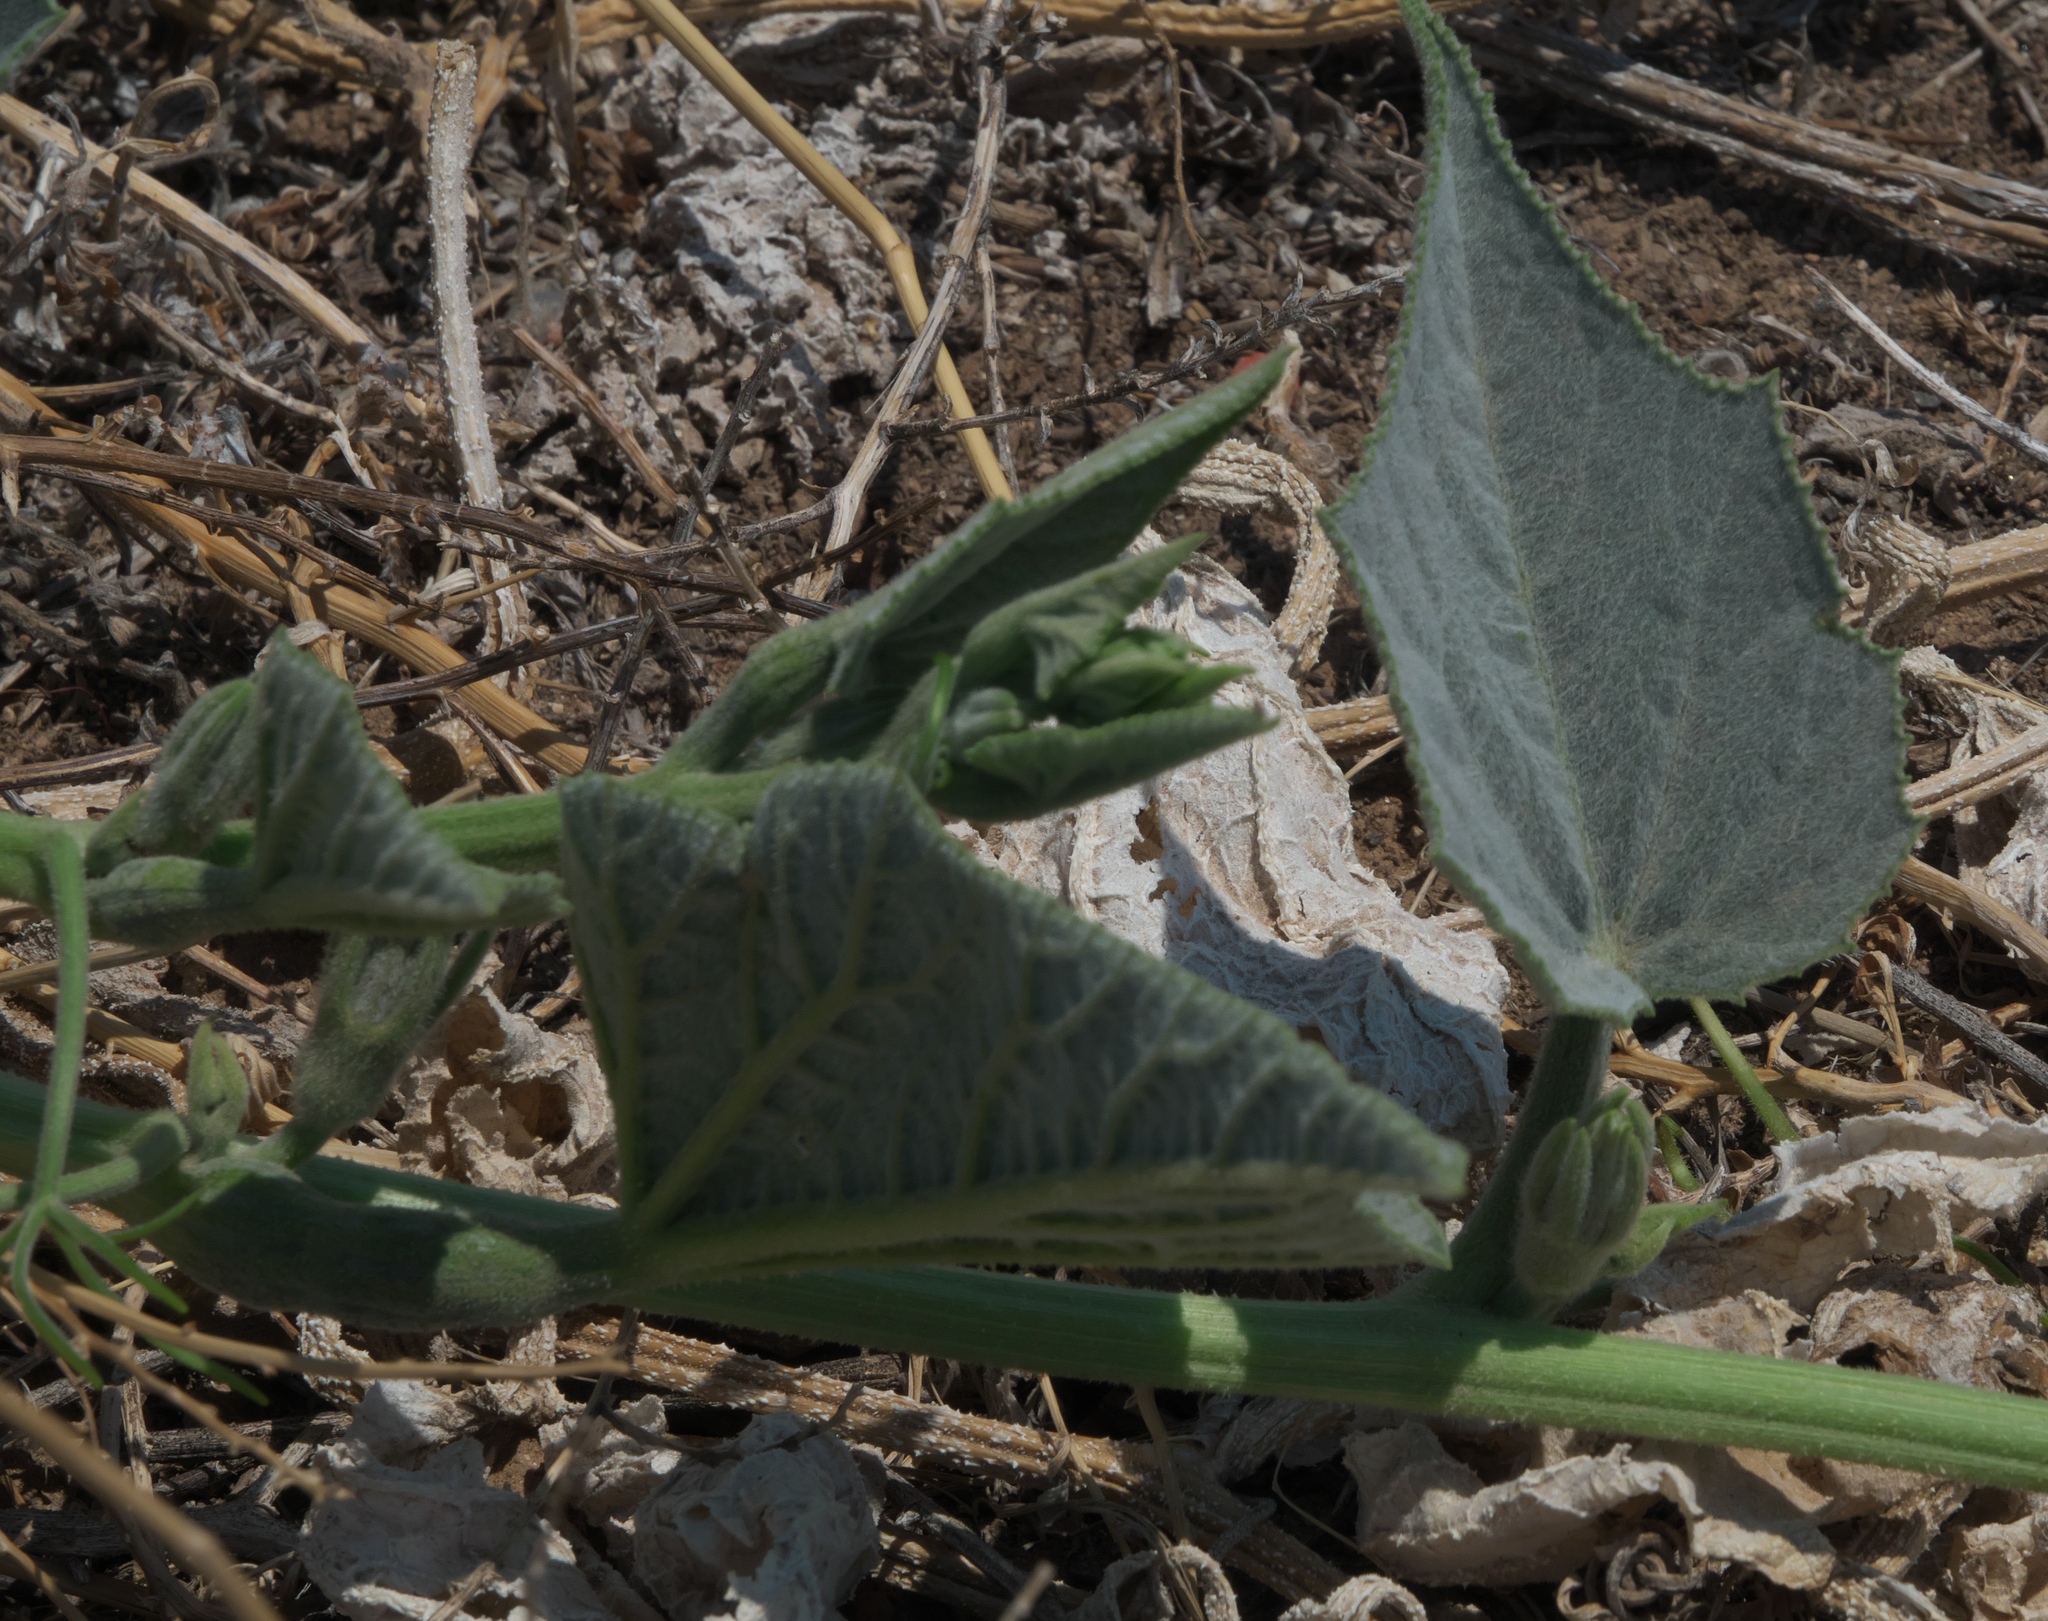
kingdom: Plantae
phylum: Tracheophyta
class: Magnoliopsida
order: Cucurbitales
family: Cucurbitaceae
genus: Cucurbita
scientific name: Cucurbita foetidissima
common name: Buffalo gourd
